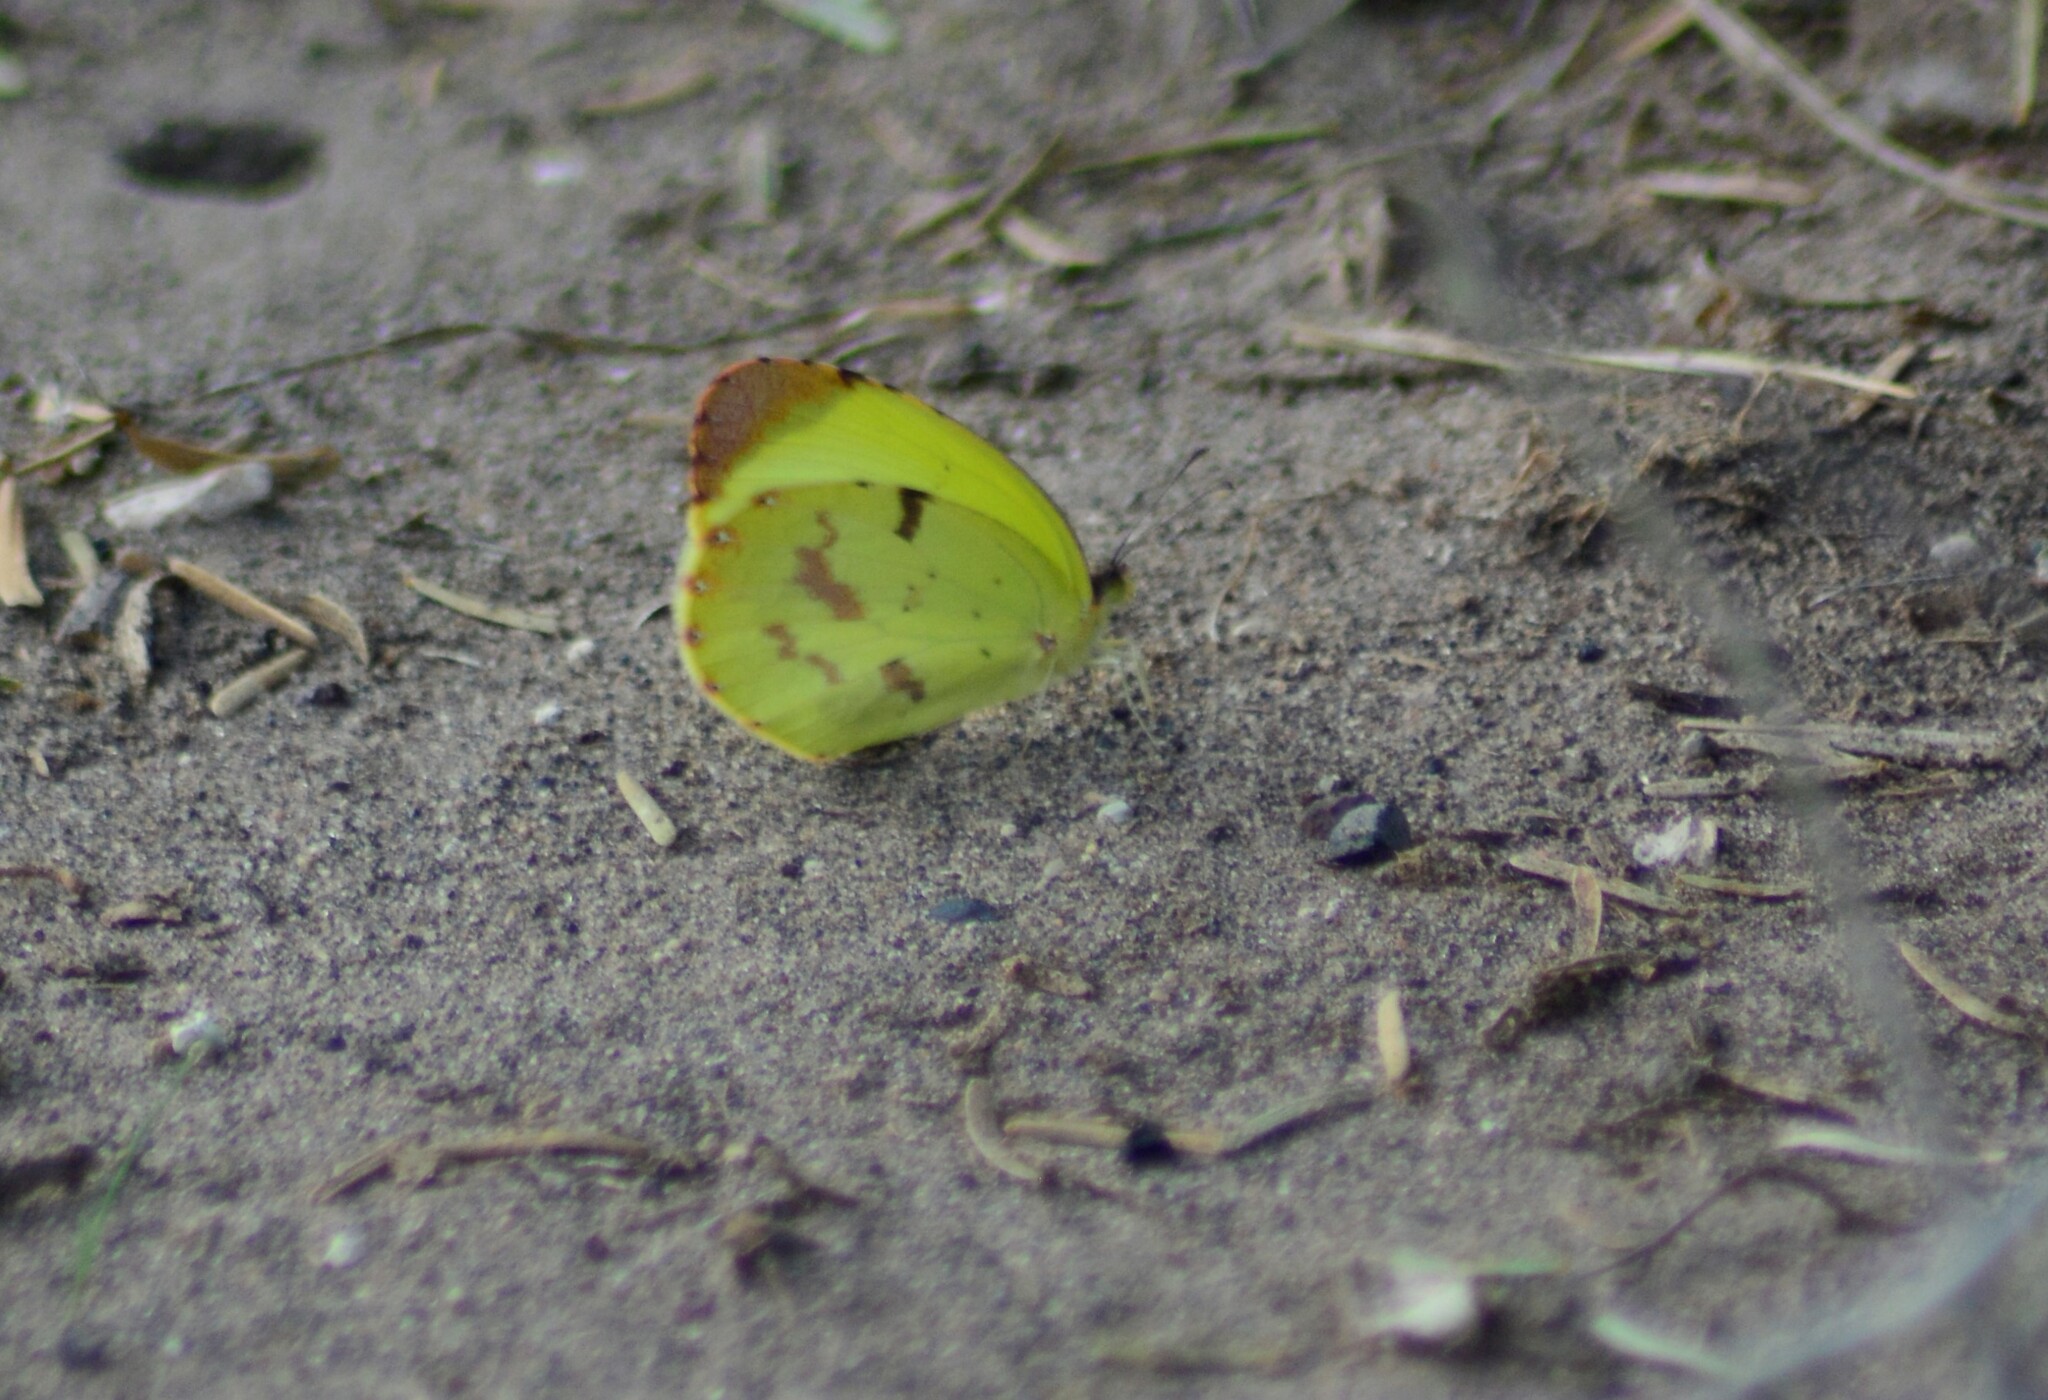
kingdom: Animalia
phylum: Arthropoda
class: Insecta
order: Lepidoptera
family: Pieridae
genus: Teriocolias
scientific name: Teriocolias
